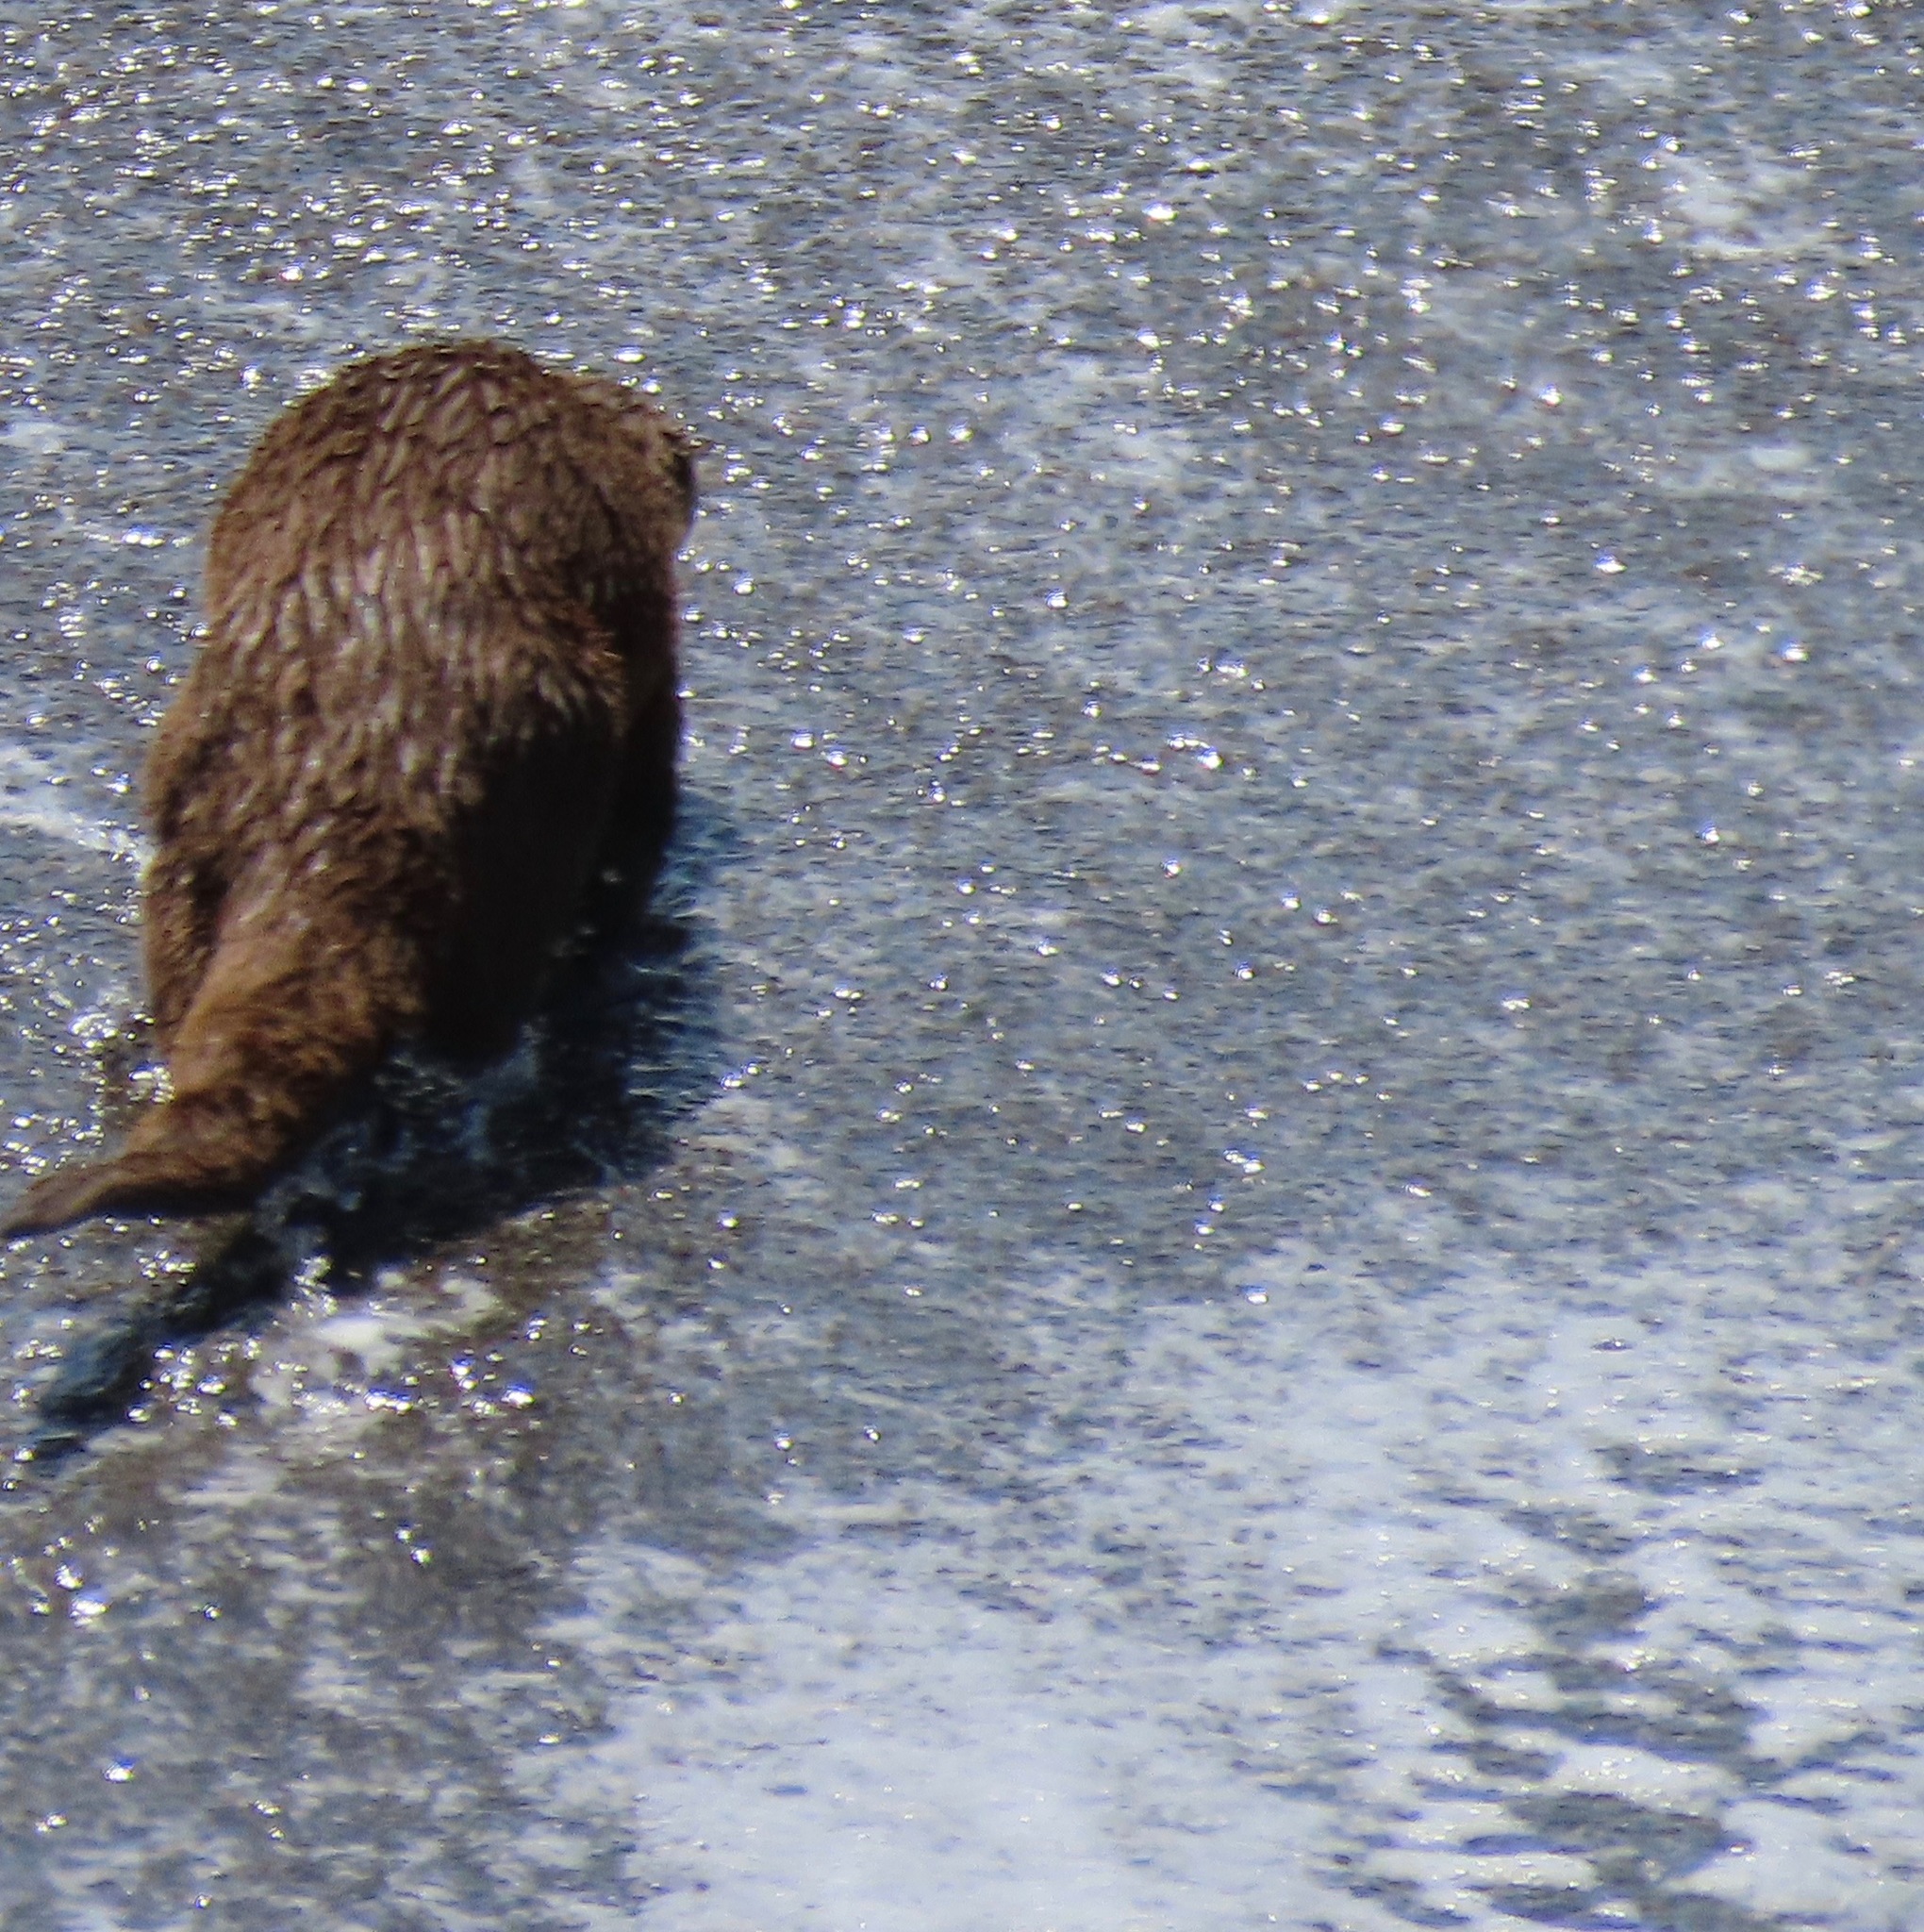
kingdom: Animalia
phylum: Chordata
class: Mammalia
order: Carnivora
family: Mustelidae
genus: Lontra
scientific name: Lontra canadensis
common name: North american river otter
